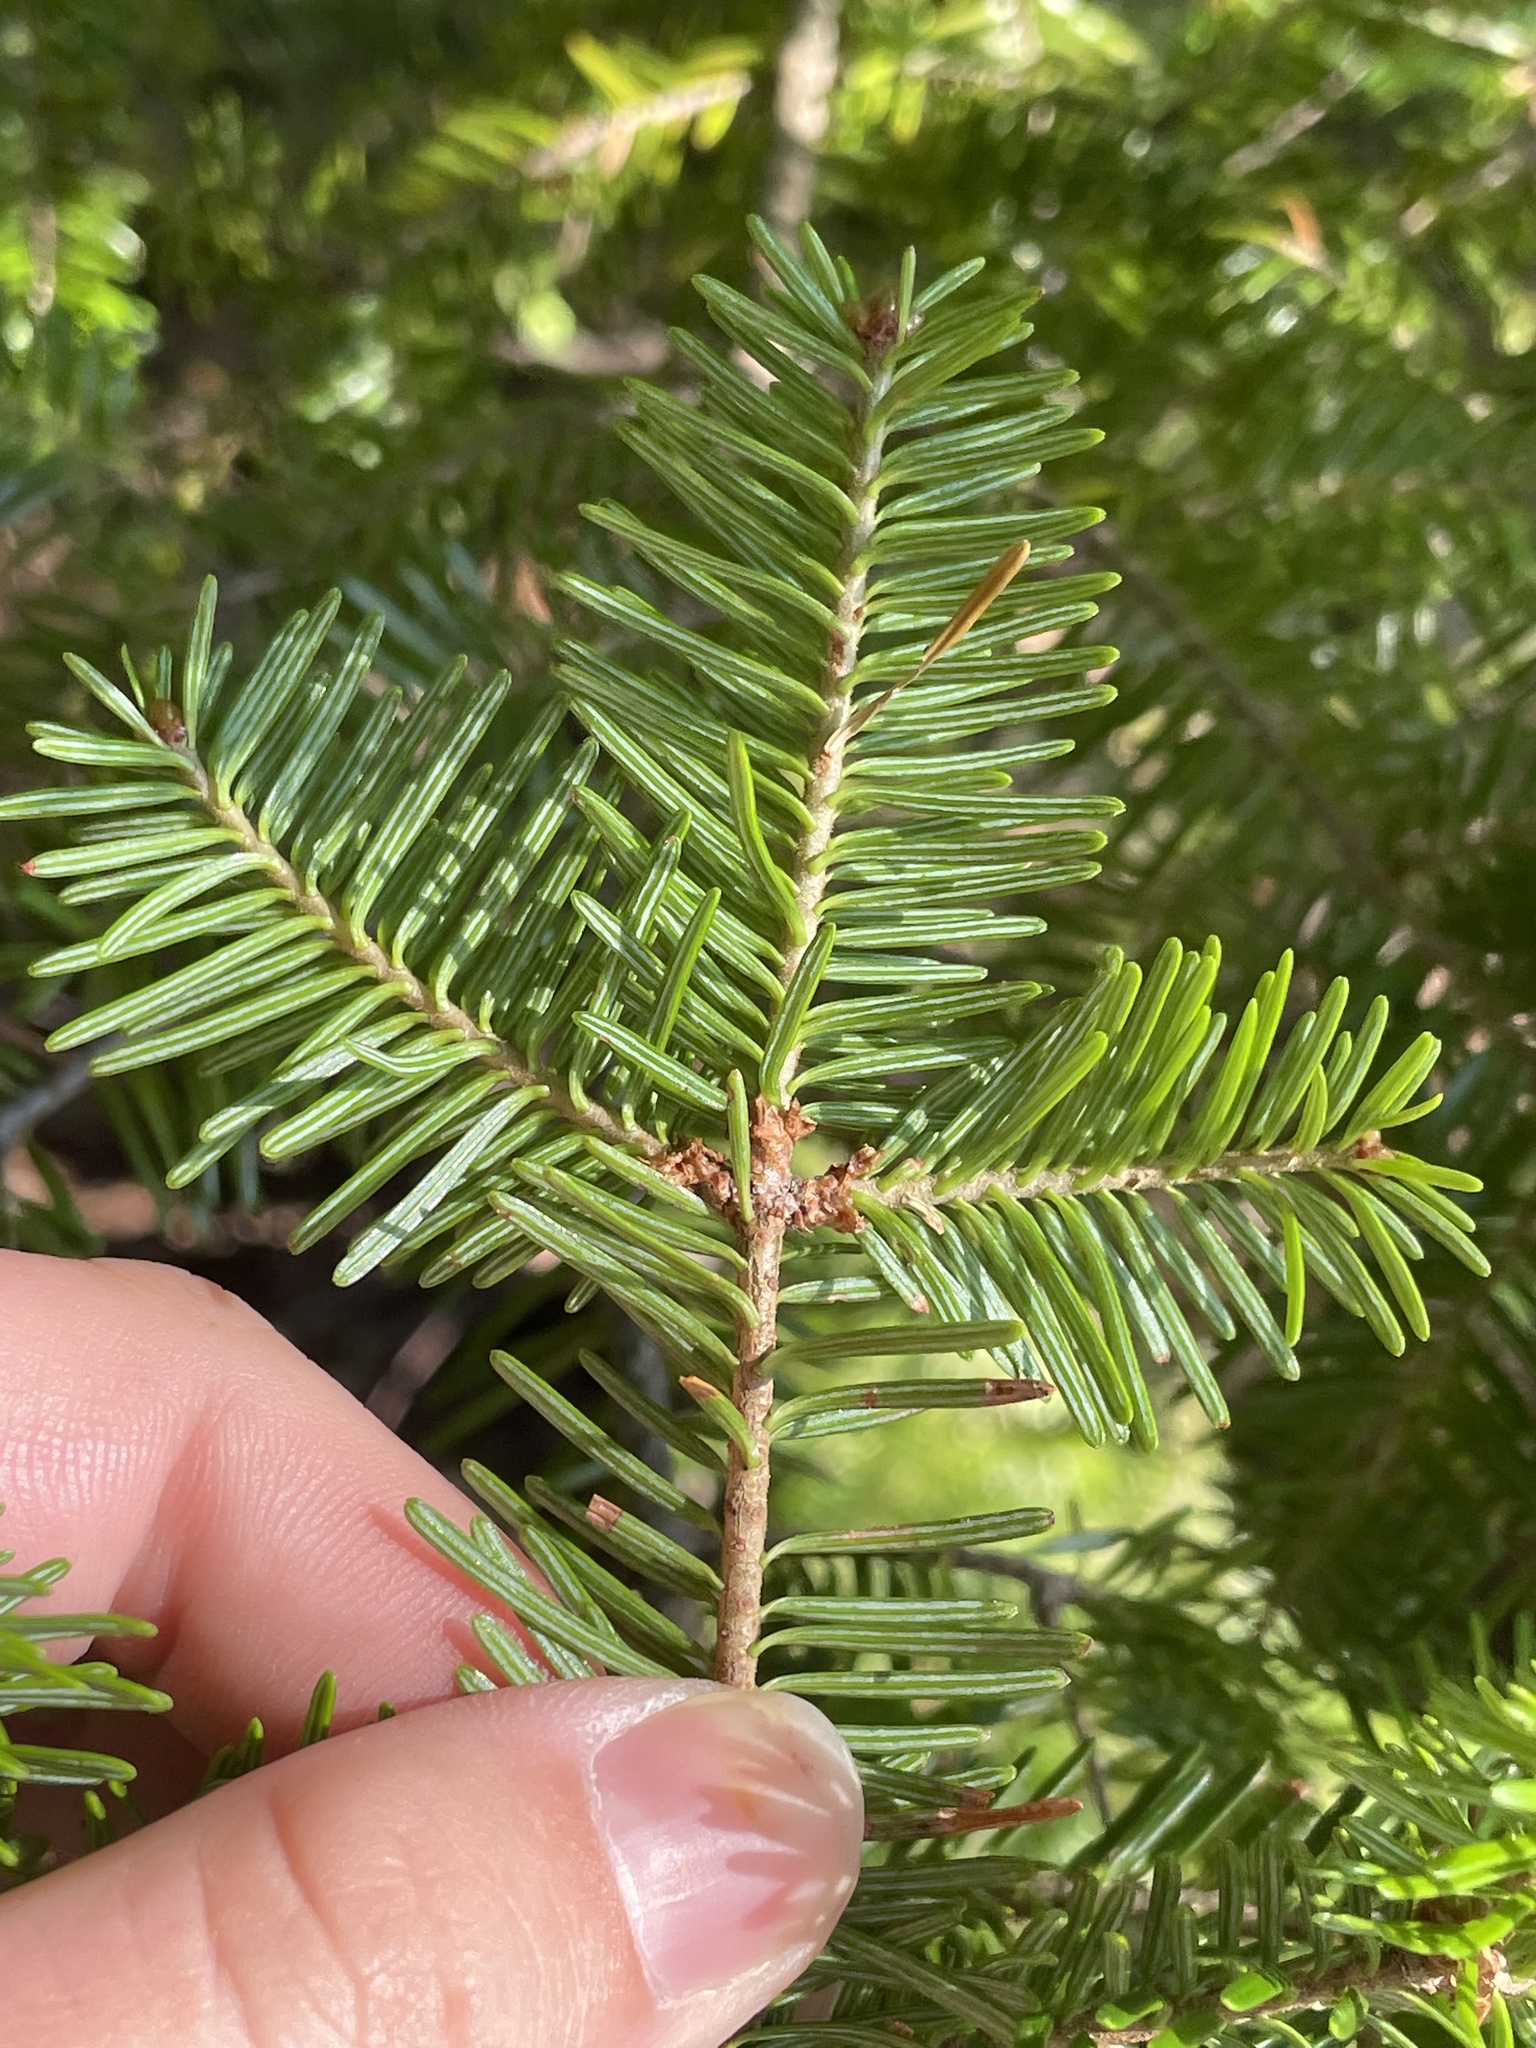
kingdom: Plantae
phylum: Tracheophyta
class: Pinopsida
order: Pinales
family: Pinaceae
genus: Abies
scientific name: Abies balsamea
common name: Balsam fir
